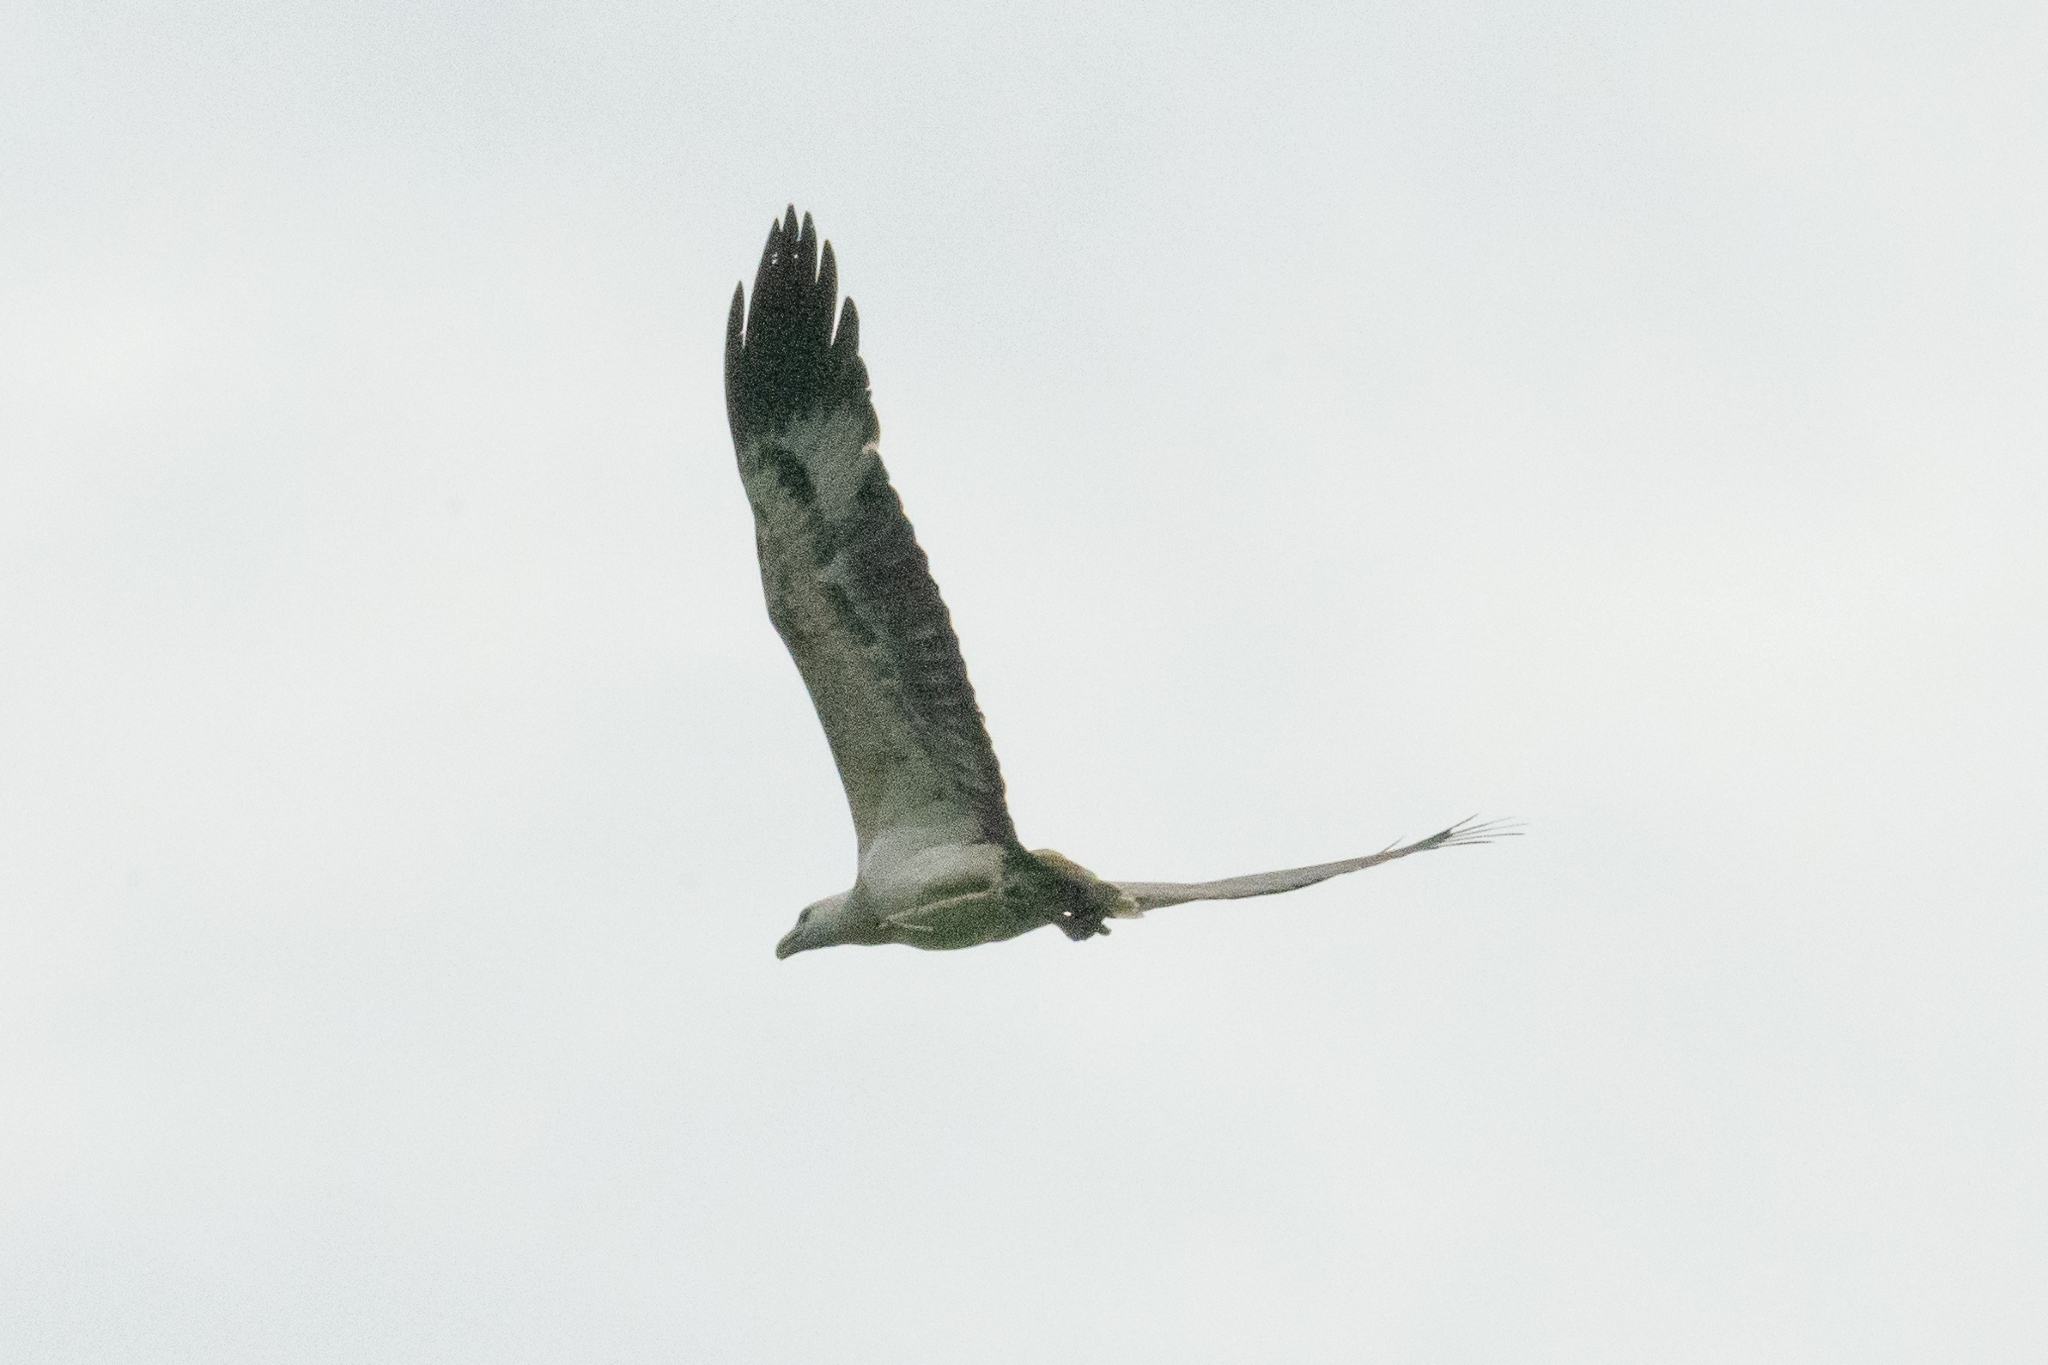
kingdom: Animalia
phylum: Chordata
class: Aves
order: Accipitriformes
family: Accipitridae
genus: Haliaeetus
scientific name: Haliaeetus leucogaster
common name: White-bellied sea eagle
